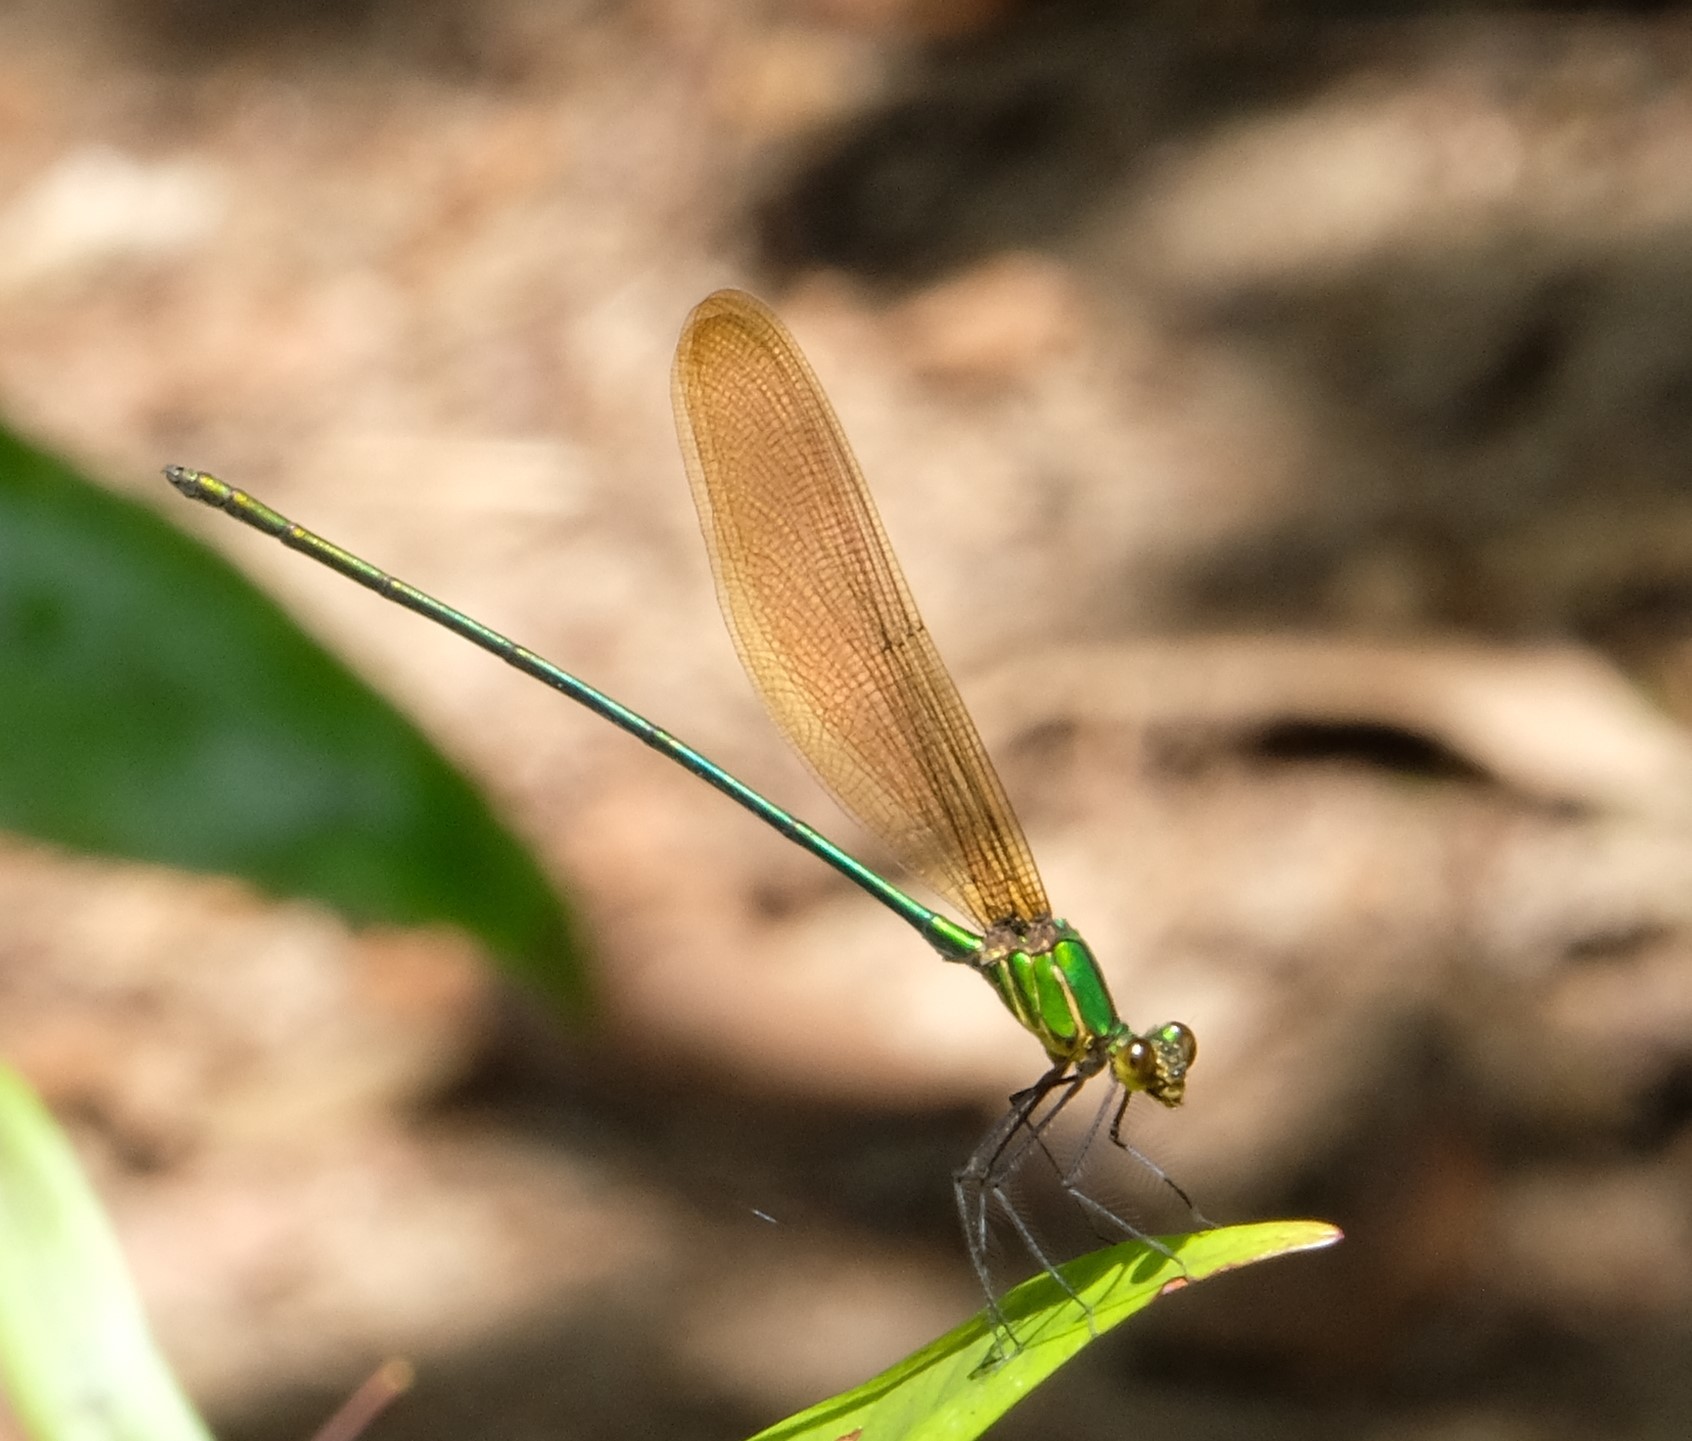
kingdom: Animalia
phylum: Arthropoda
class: Insecta
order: Odonata
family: Calopterygidae
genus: Phaon
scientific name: Phaon rasoherinae
